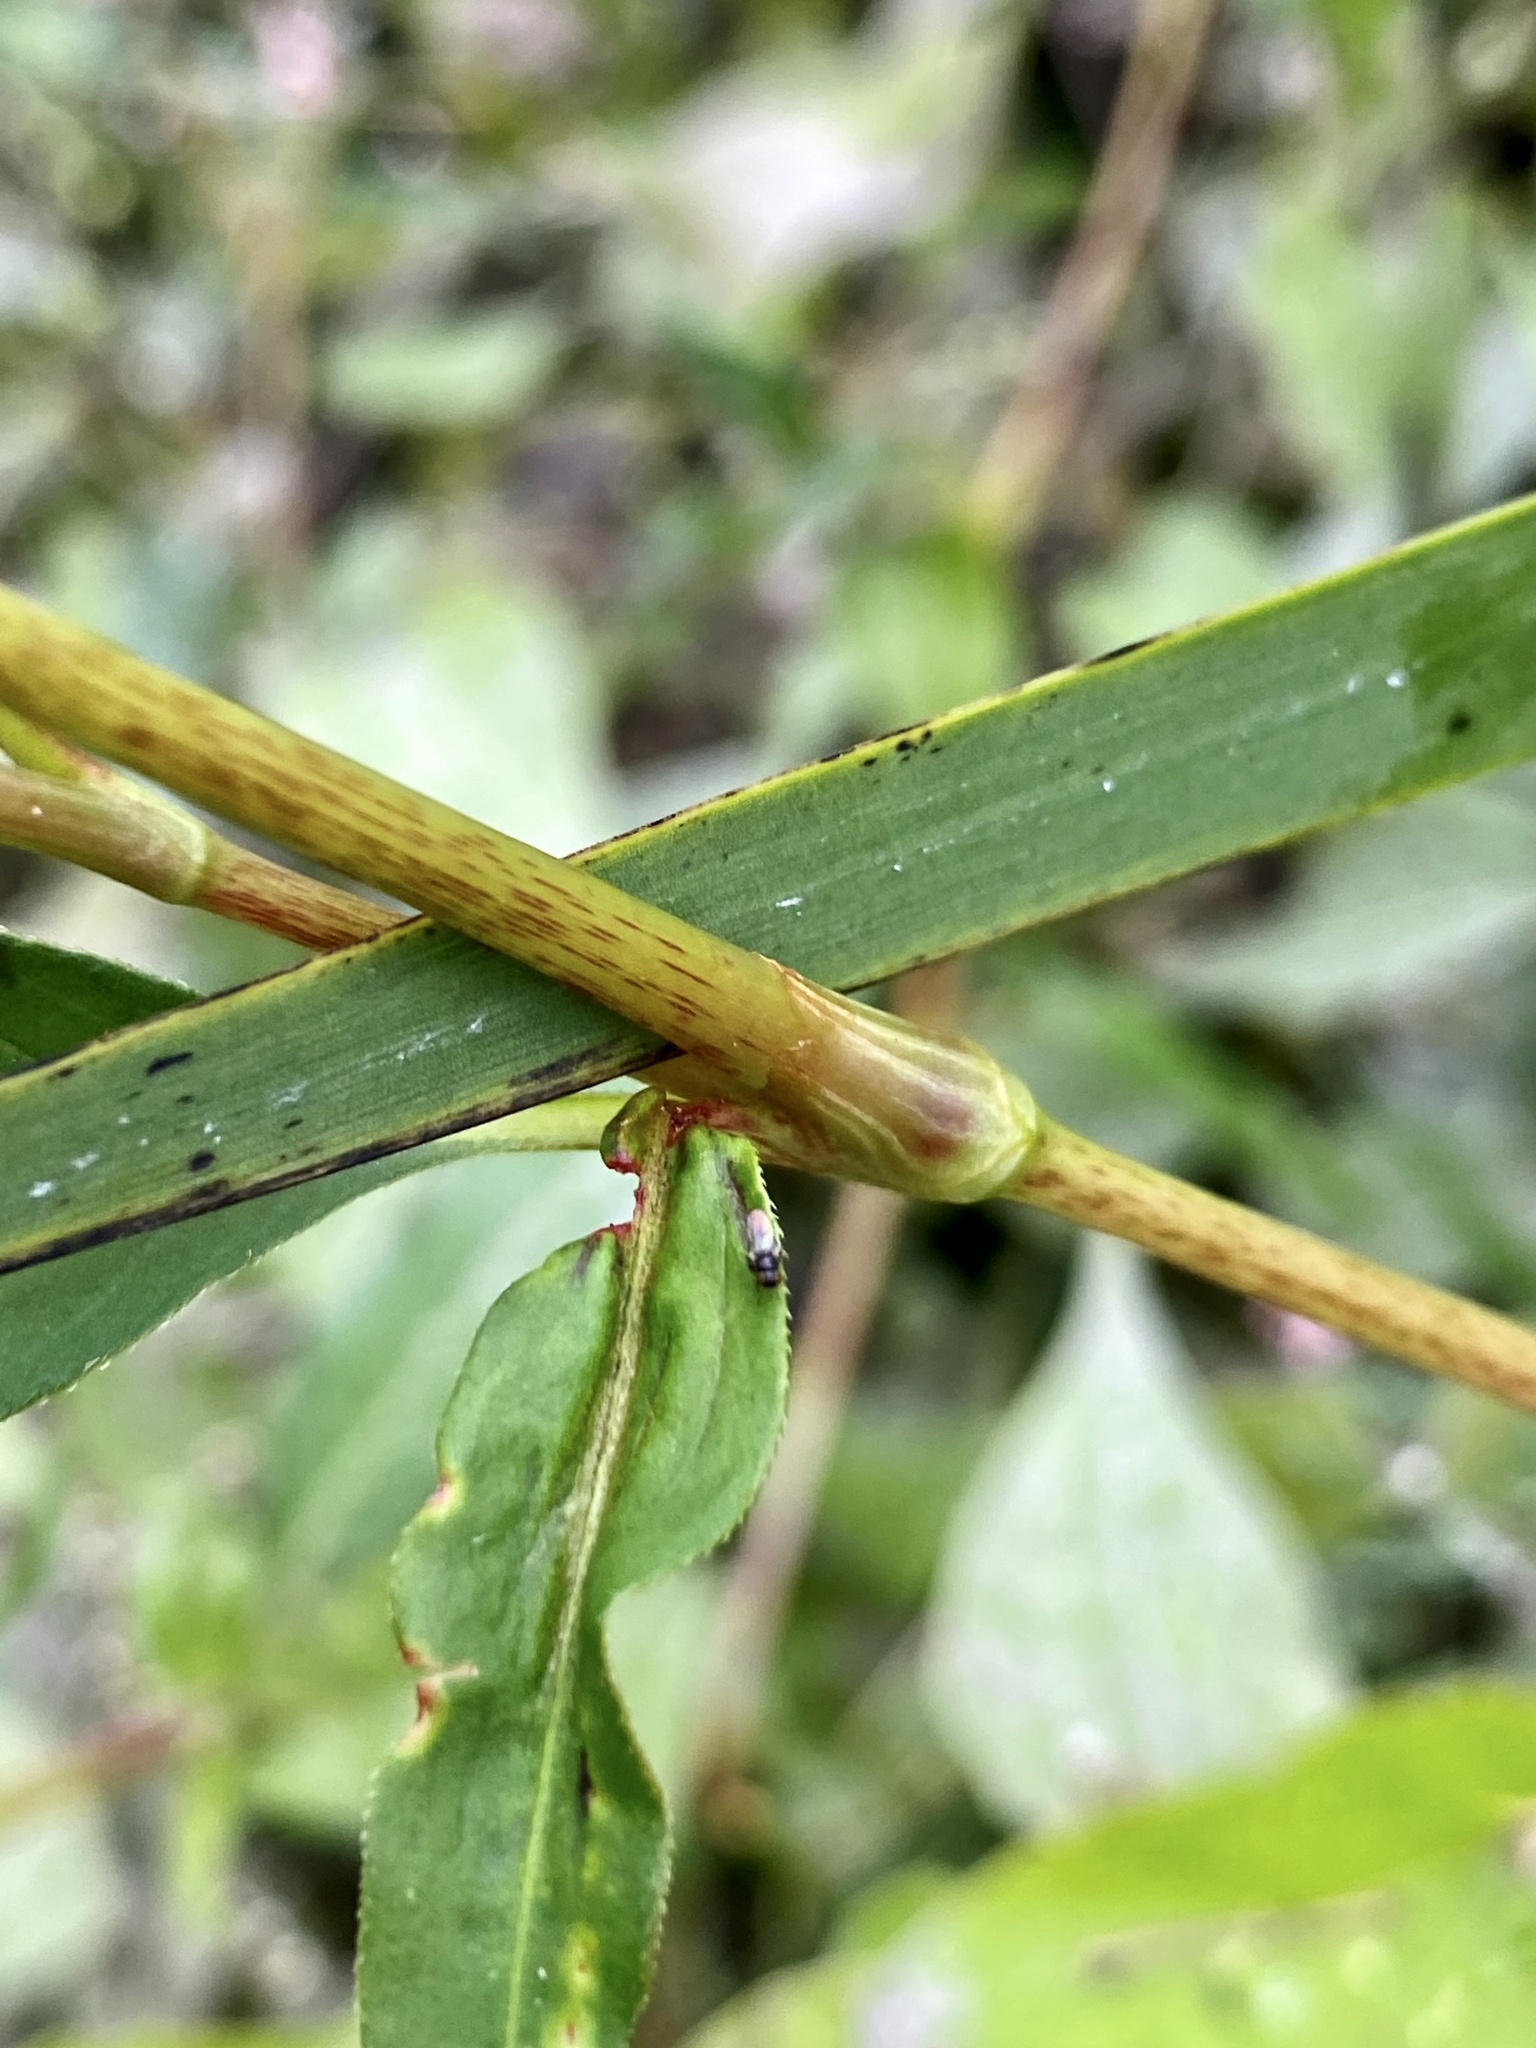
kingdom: Plantae
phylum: Tracheophyta
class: Magnoliopsida
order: Caryophyllales
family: Polygonaceae
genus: Persicaria
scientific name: Persicaria pensylvanica
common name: Pinkweed
